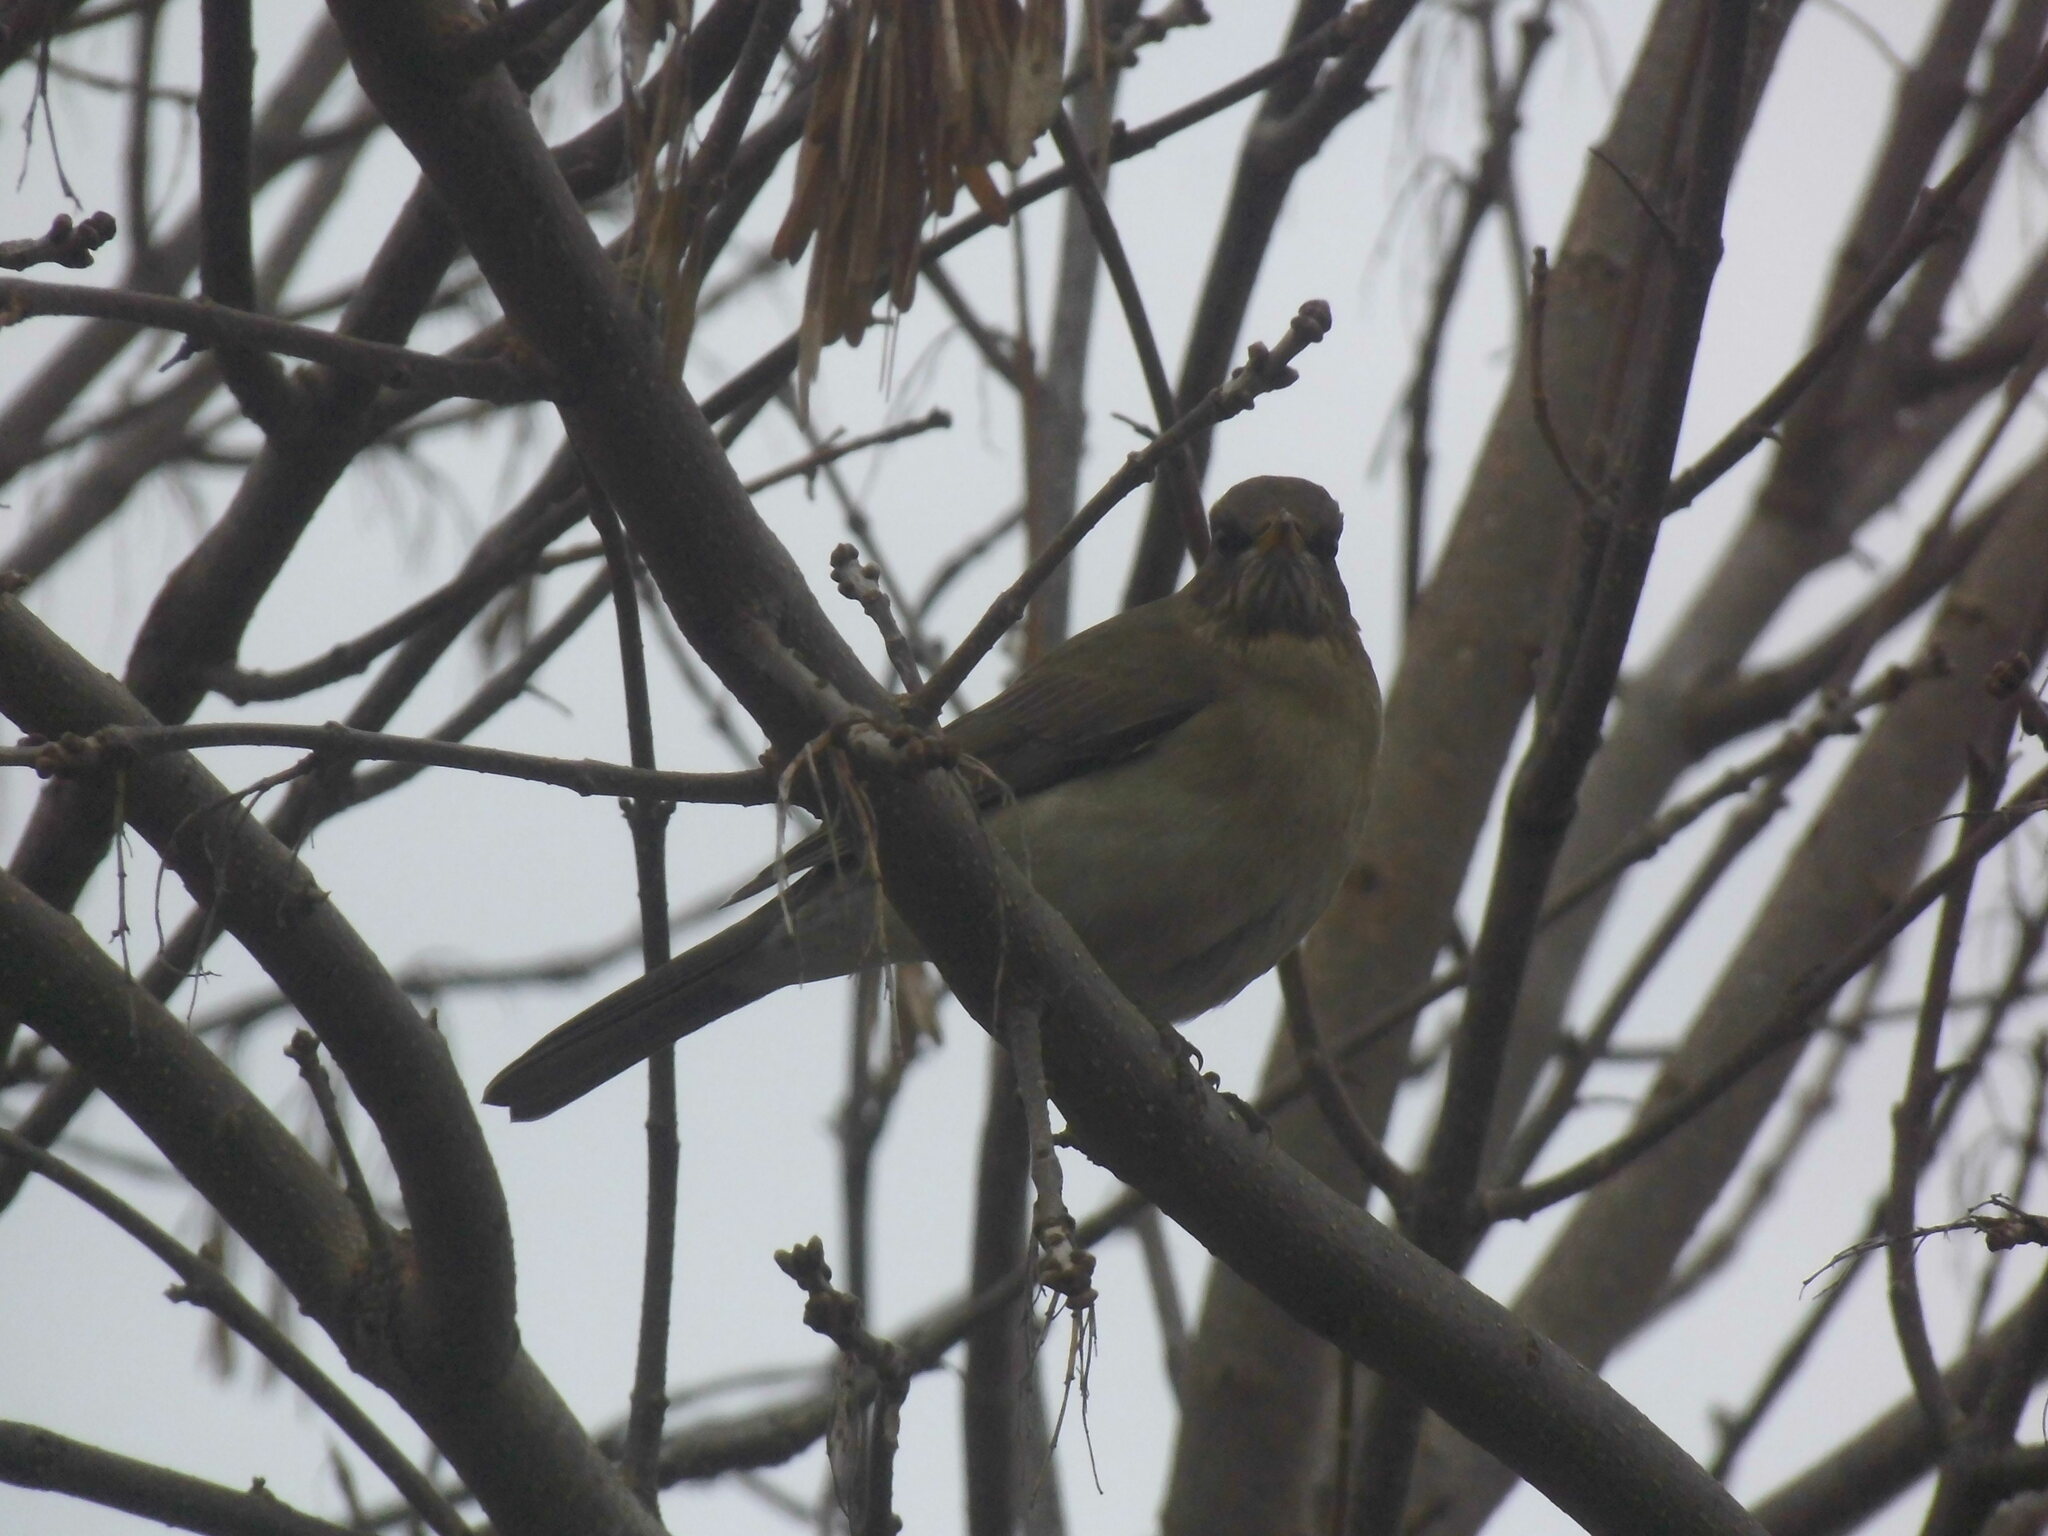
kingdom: Animalia
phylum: Chordata
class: Aves
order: Passeriformes
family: Turdidae
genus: Turdus
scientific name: Turdus amaurochalinus
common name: Creamy-bellied thrush
